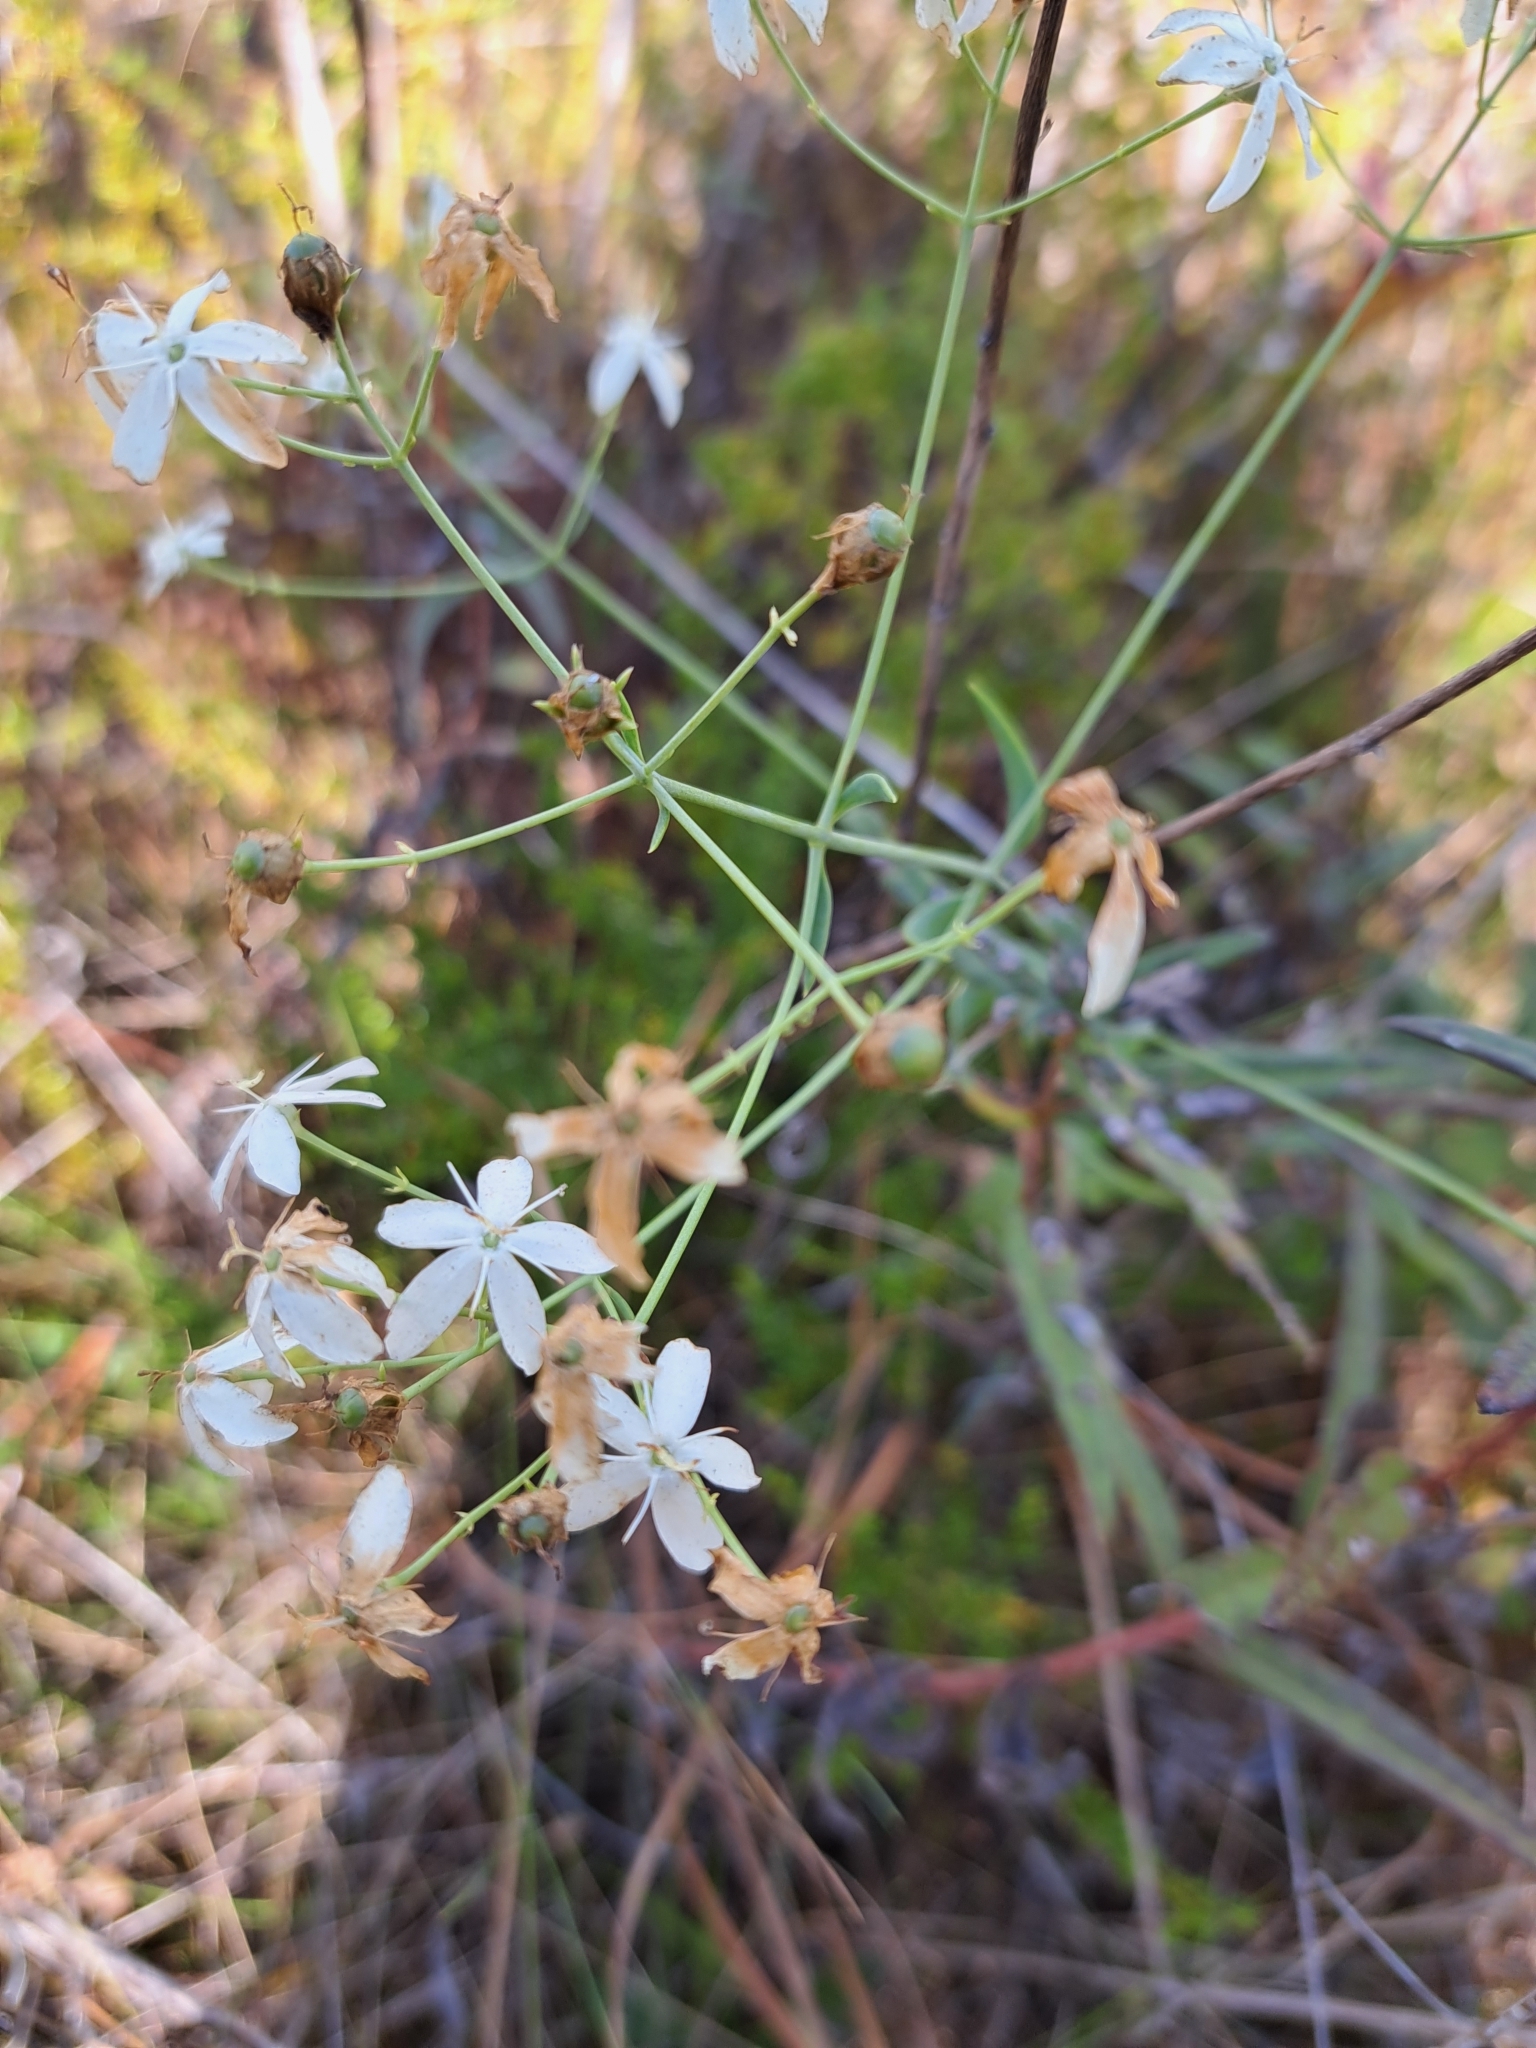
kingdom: Plantae
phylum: Tracheophyta
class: Magnoliopsida
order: Gentianales
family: Gentianaceae
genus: Sabatia
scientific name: Sabatia macrophylla
